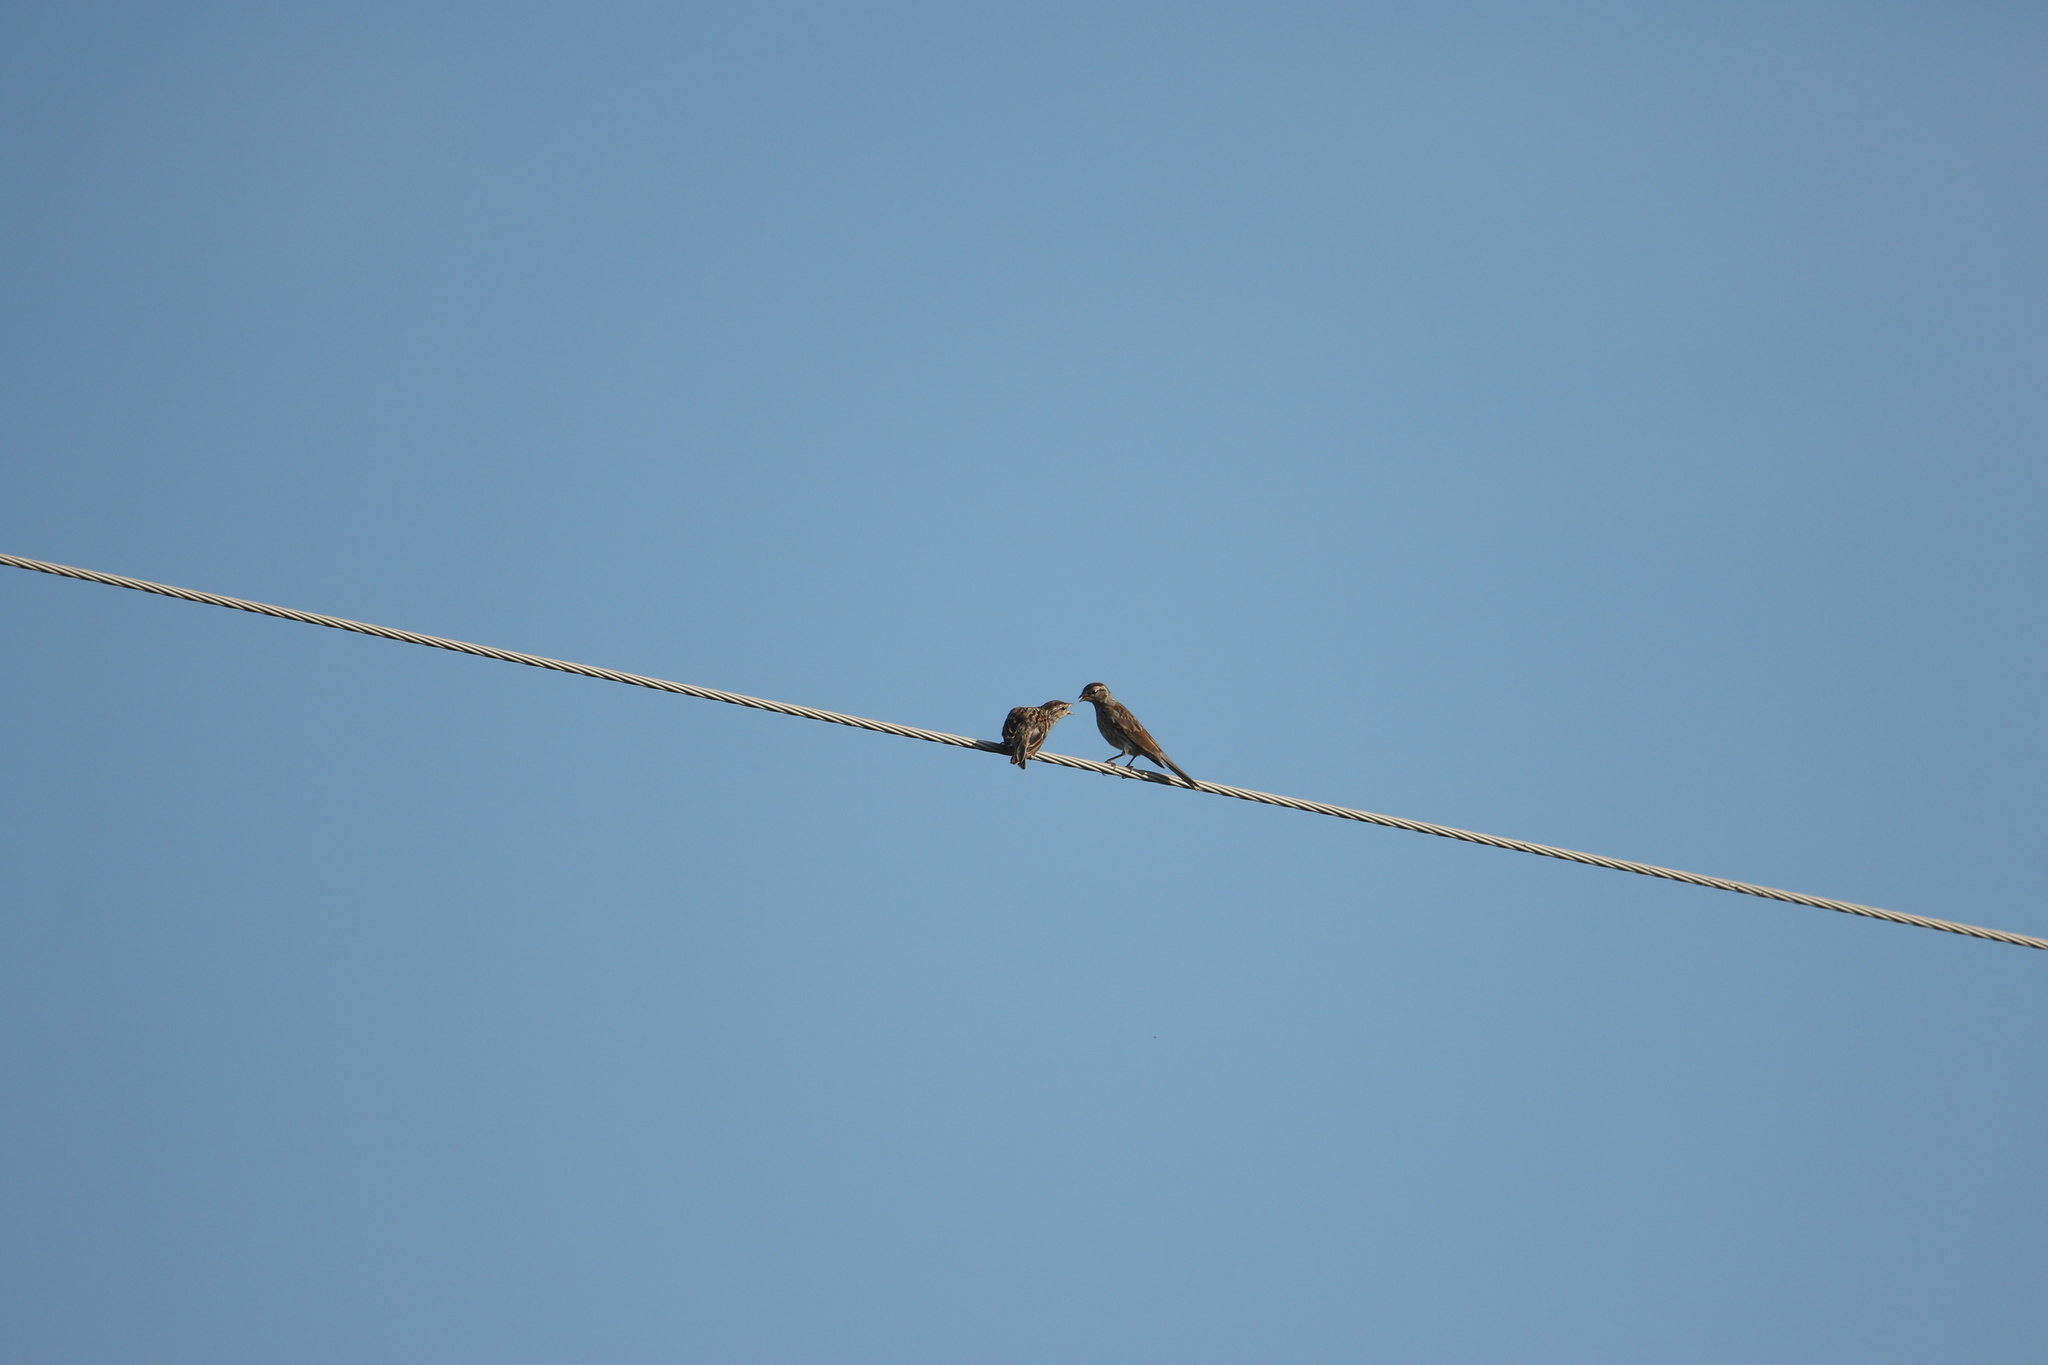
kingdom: Animalia
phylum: Chordata
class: Aves
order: Passeriformes
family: Passerellidae
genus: Spizella
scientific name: Spizella passerina
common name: Chipping sparrow
